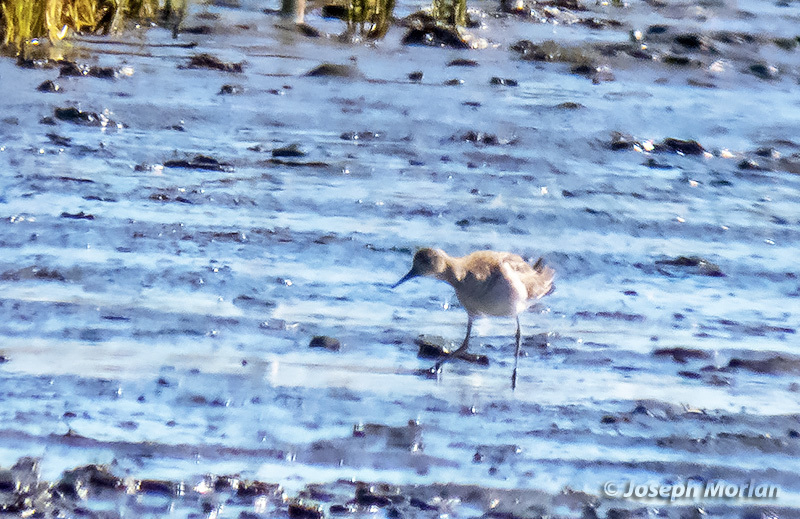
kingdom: Animalia
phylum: Chordata
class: Aves
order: Charadriiformes
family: Scolopacidae
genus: Calidris
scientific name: Calidris pugnax
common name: Ruff
